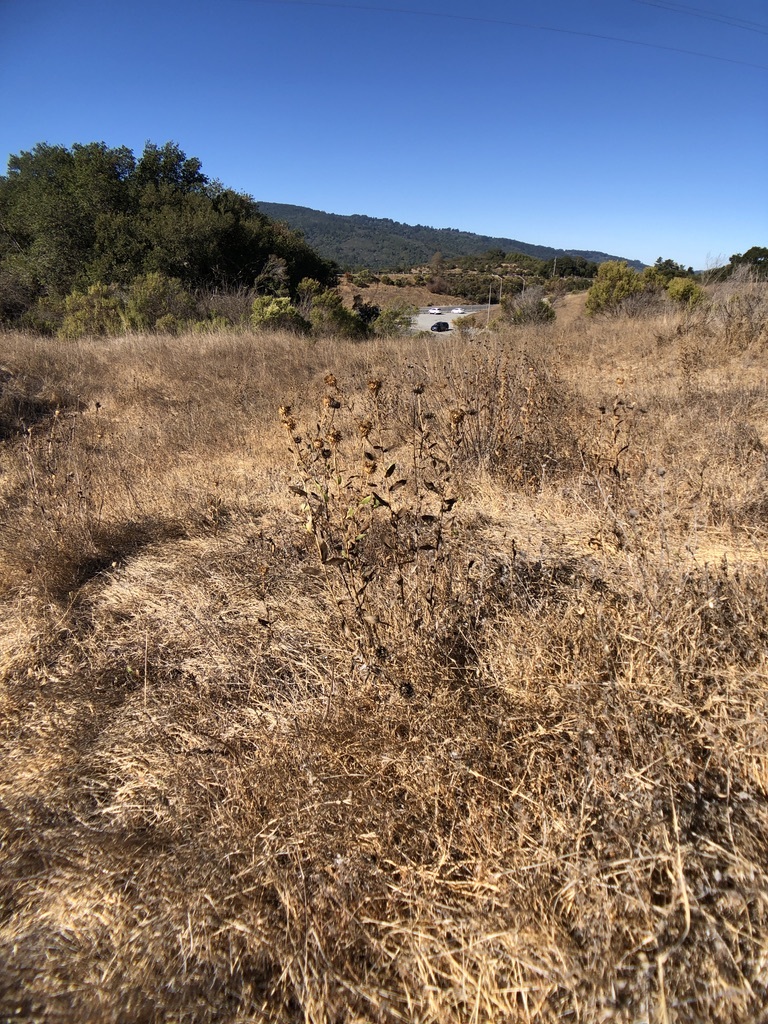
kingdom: Plantae
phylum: Tracheophyta
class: Magnoliopsida
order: Asterales
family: Asteraceae
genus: Grindelia
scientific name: Grindelia hirsutula
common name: Hairy gumweed
